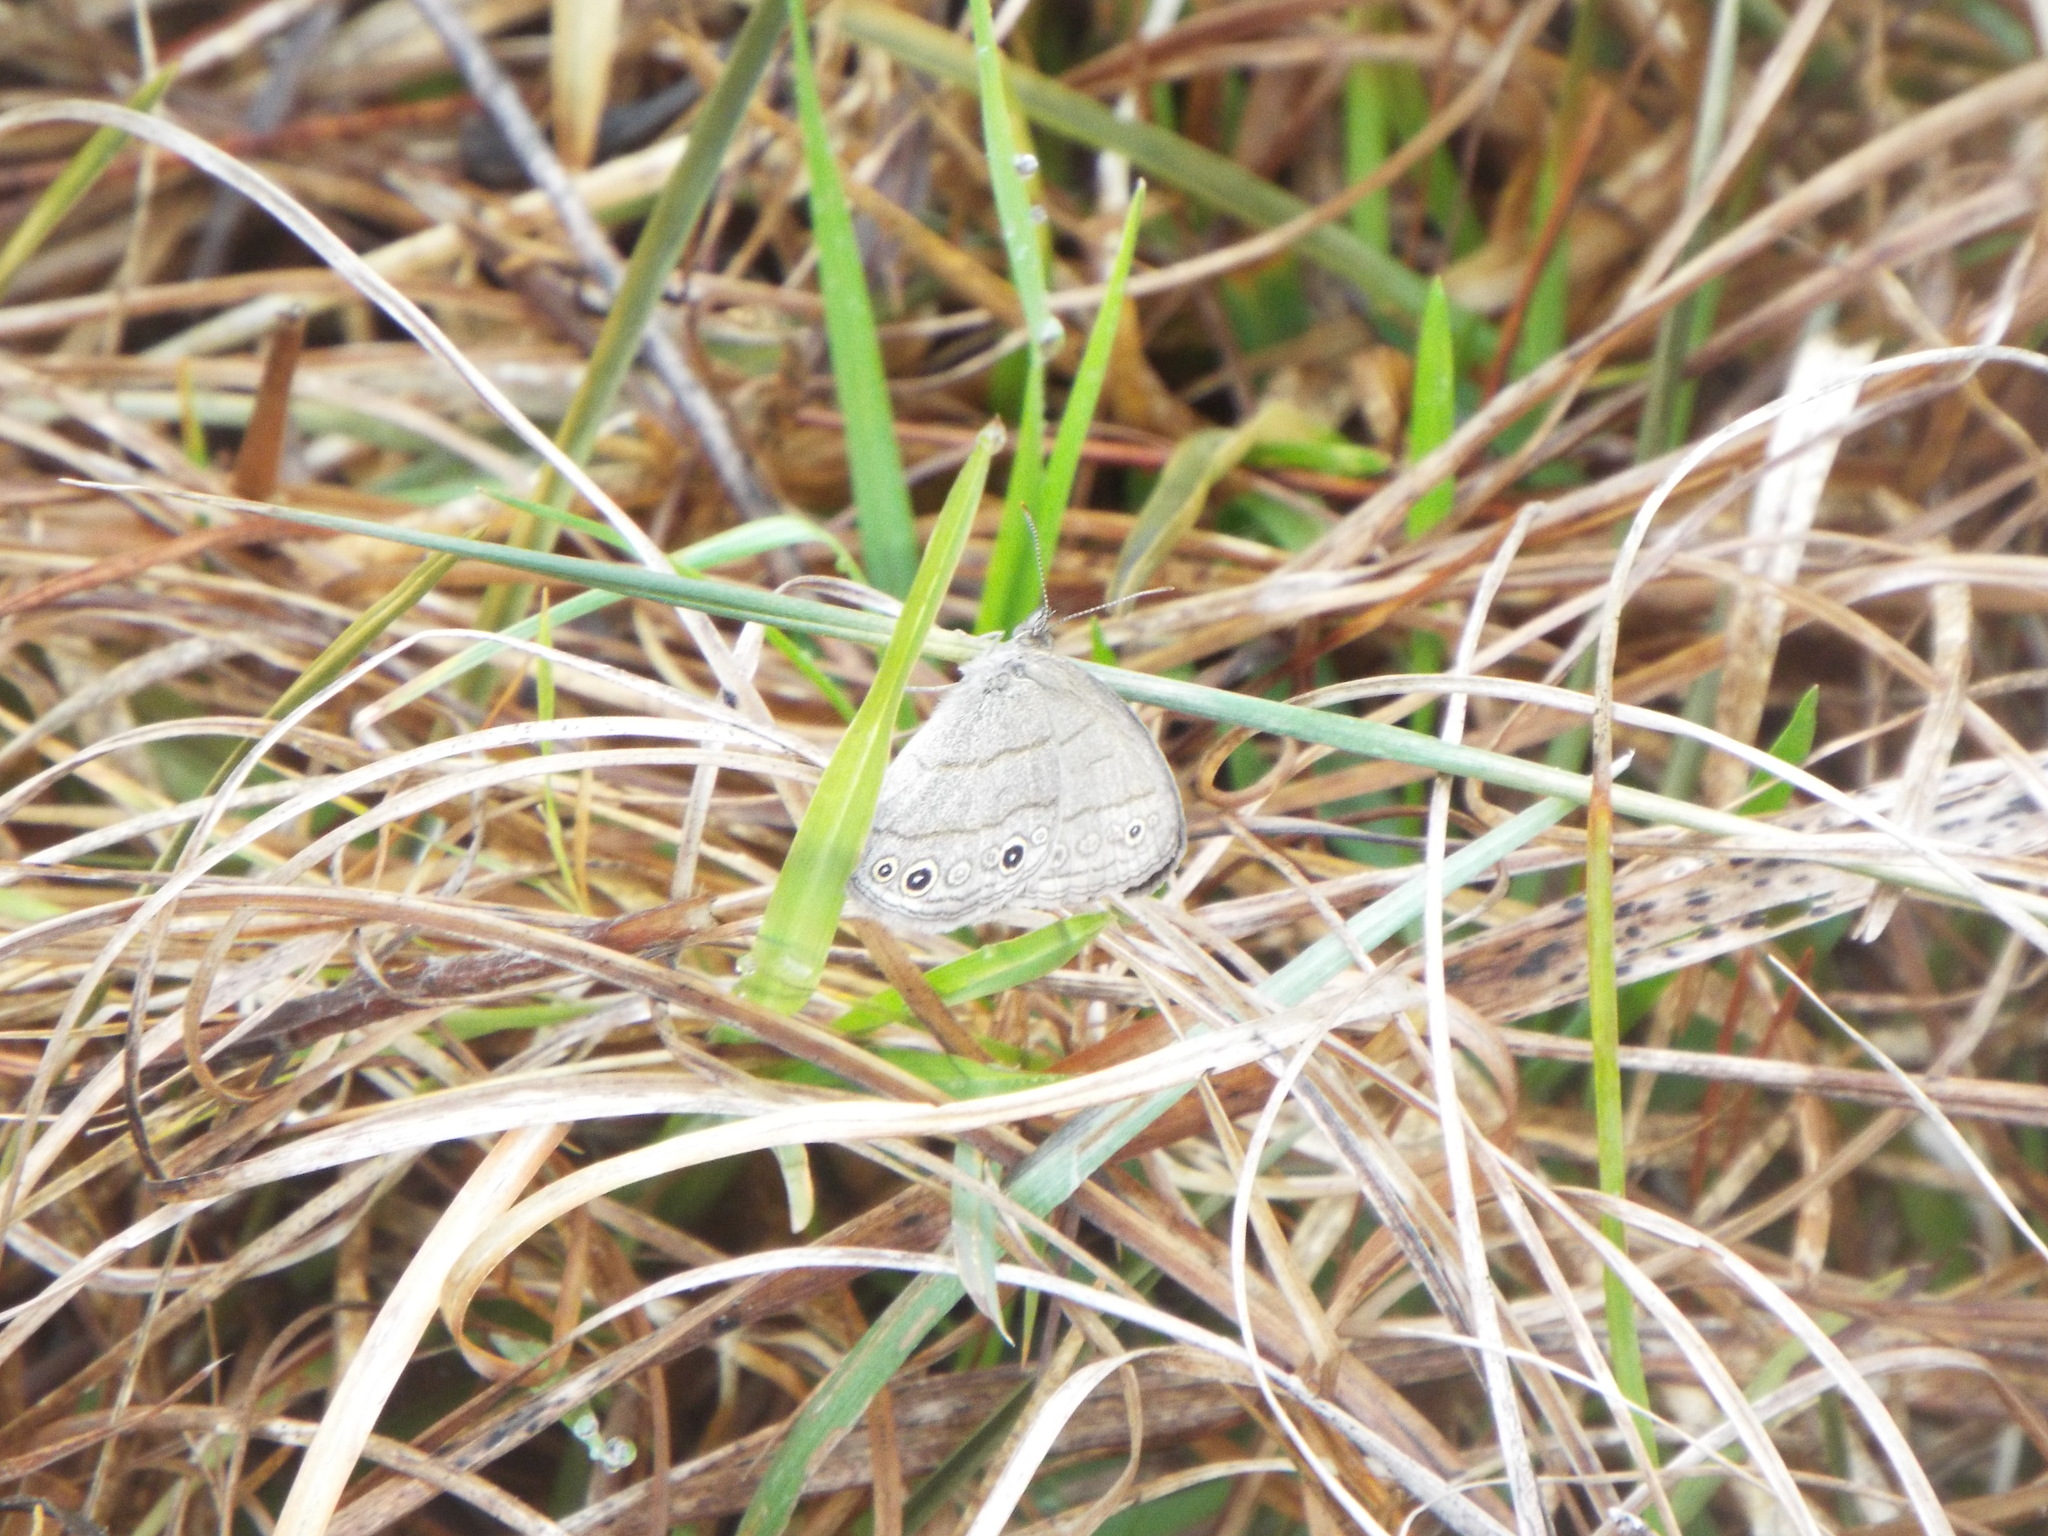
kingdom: Animalia
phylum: Arthropoda
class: Insecta
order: Lepidoptera
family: Nymphalidae
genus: Hermeuptychia
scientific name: Hermeuptychia hermes
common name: Hermes satyr
